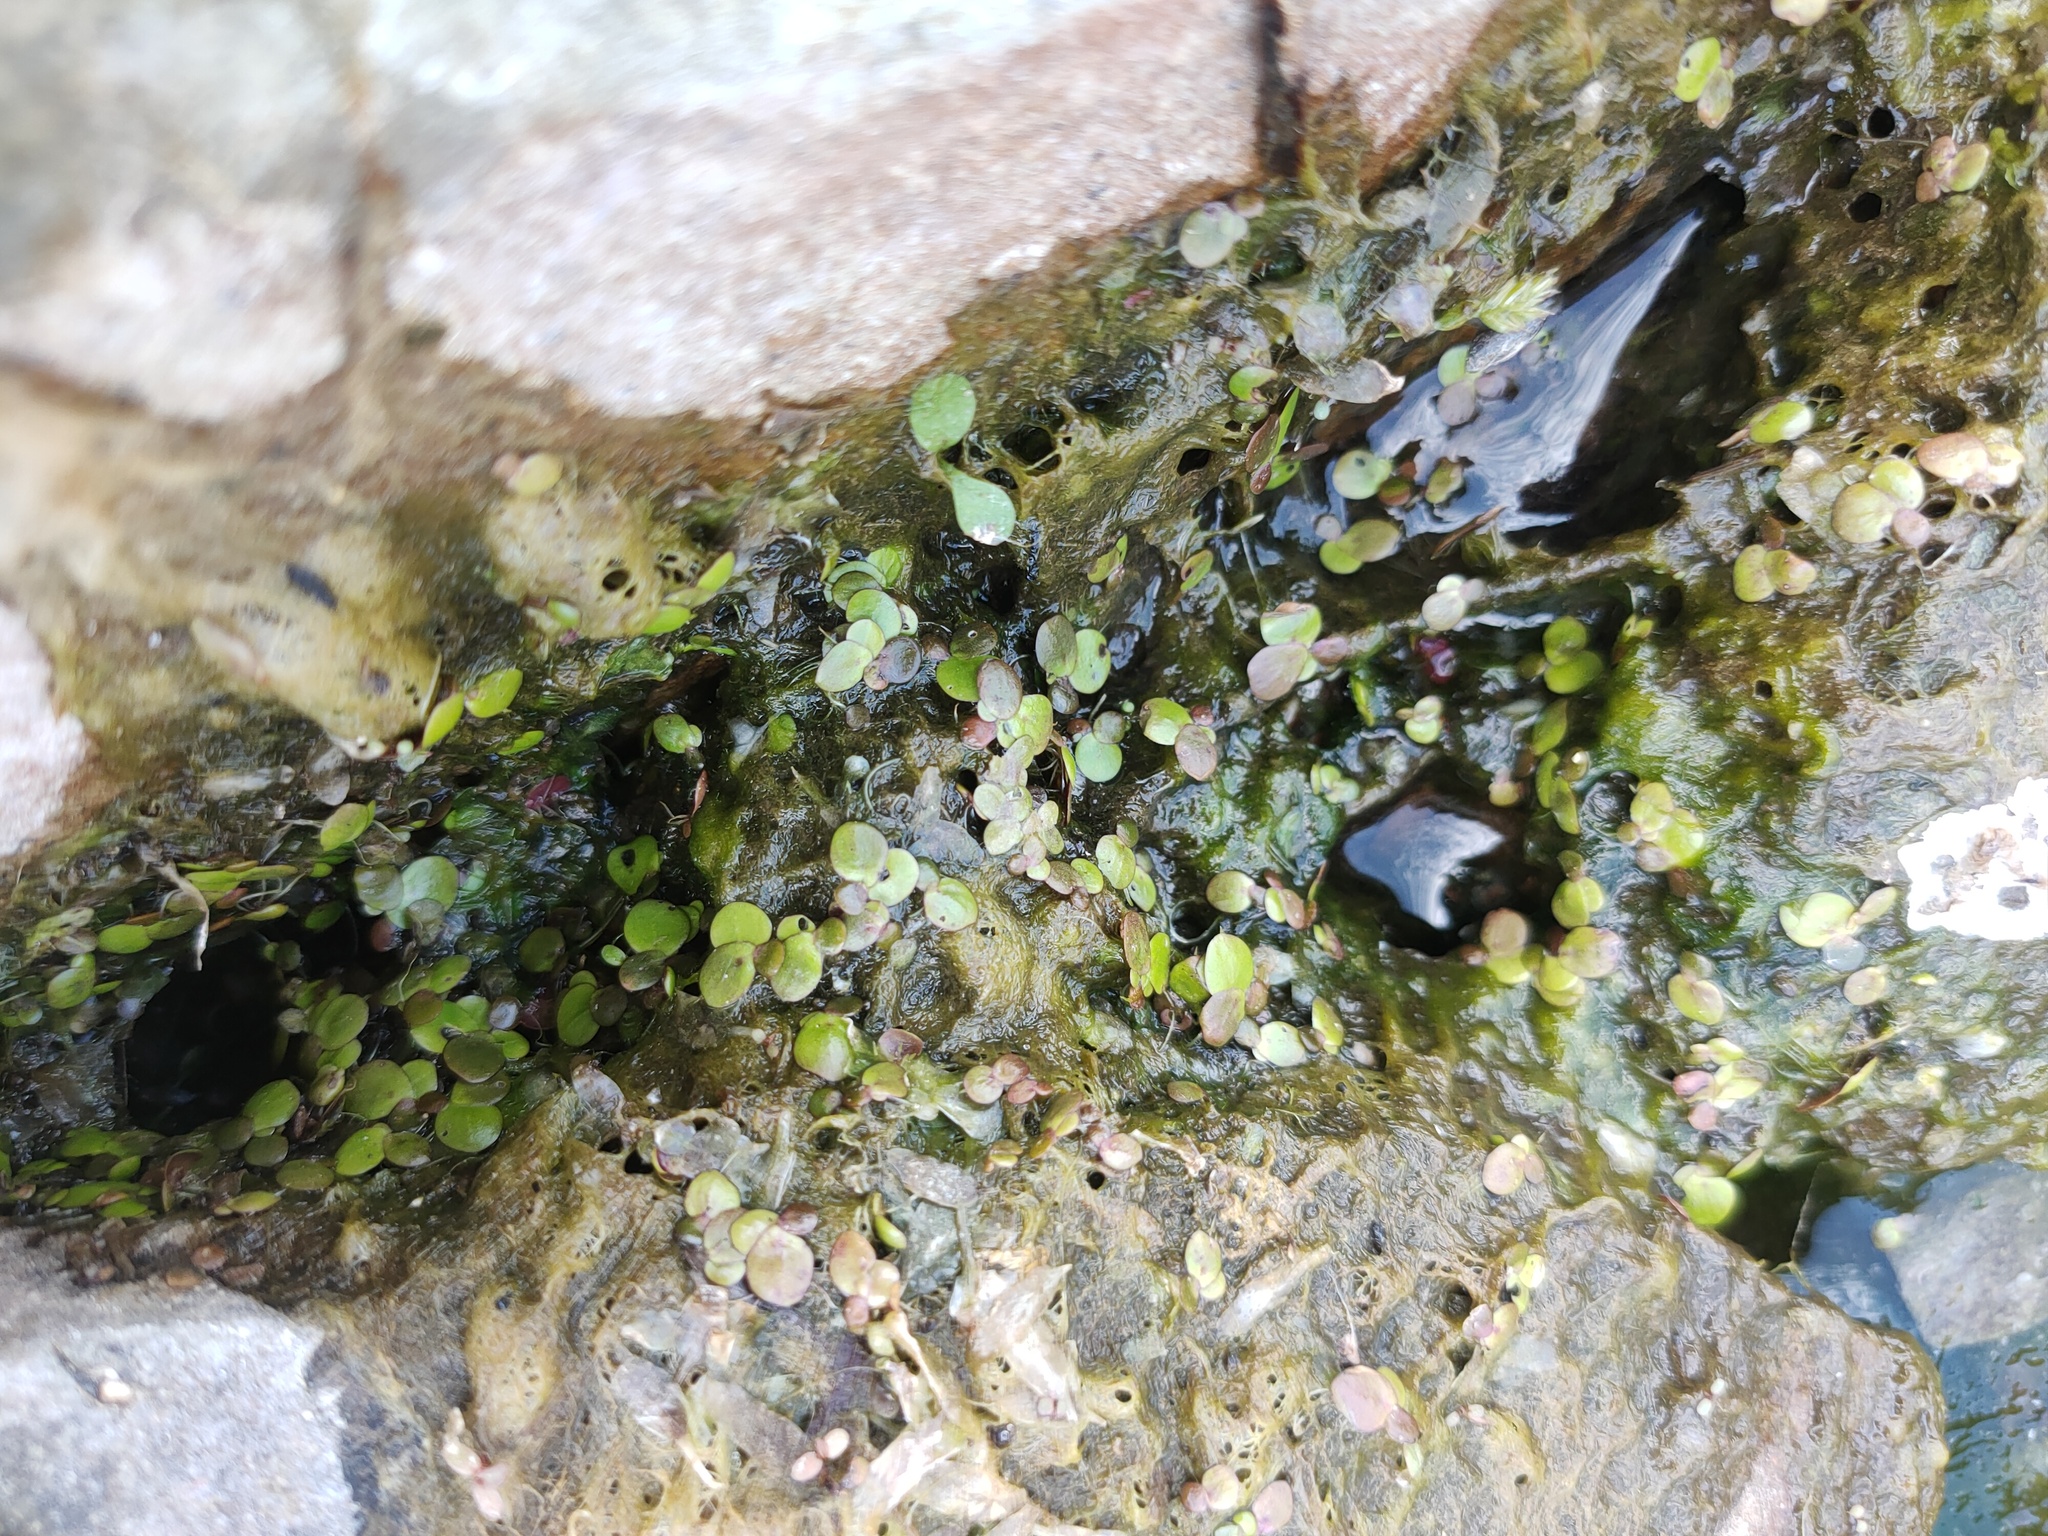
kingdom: Plantae
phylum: Tracheophyta
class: Liliopsida
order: Alismatales
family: Araceae
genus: Spirodela
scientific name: Spirodela polyrhiza
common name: Great duckweed
